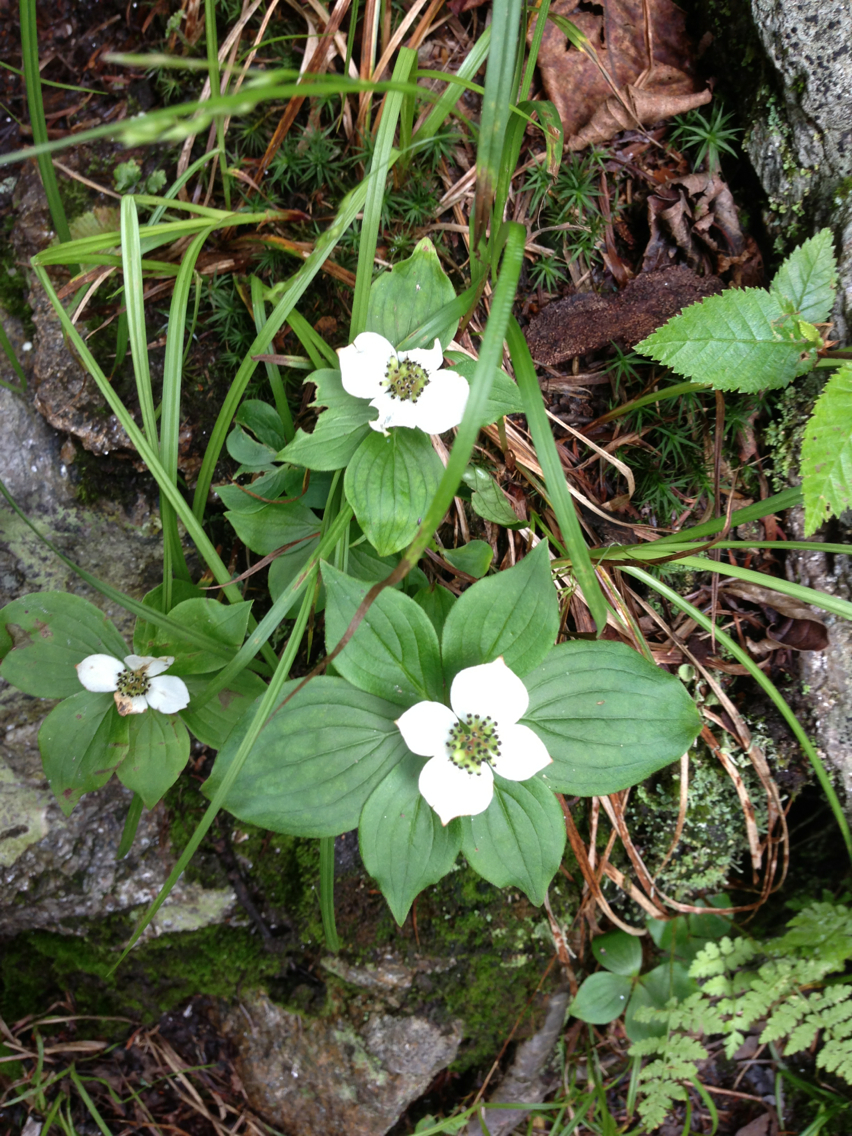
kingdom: Plantae
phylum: Tracheophyta
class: Magnoliopsida
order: Cornales
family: Cornaceae
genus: Cornus
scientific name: Cornus canadensis
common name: Creeping dogwood
